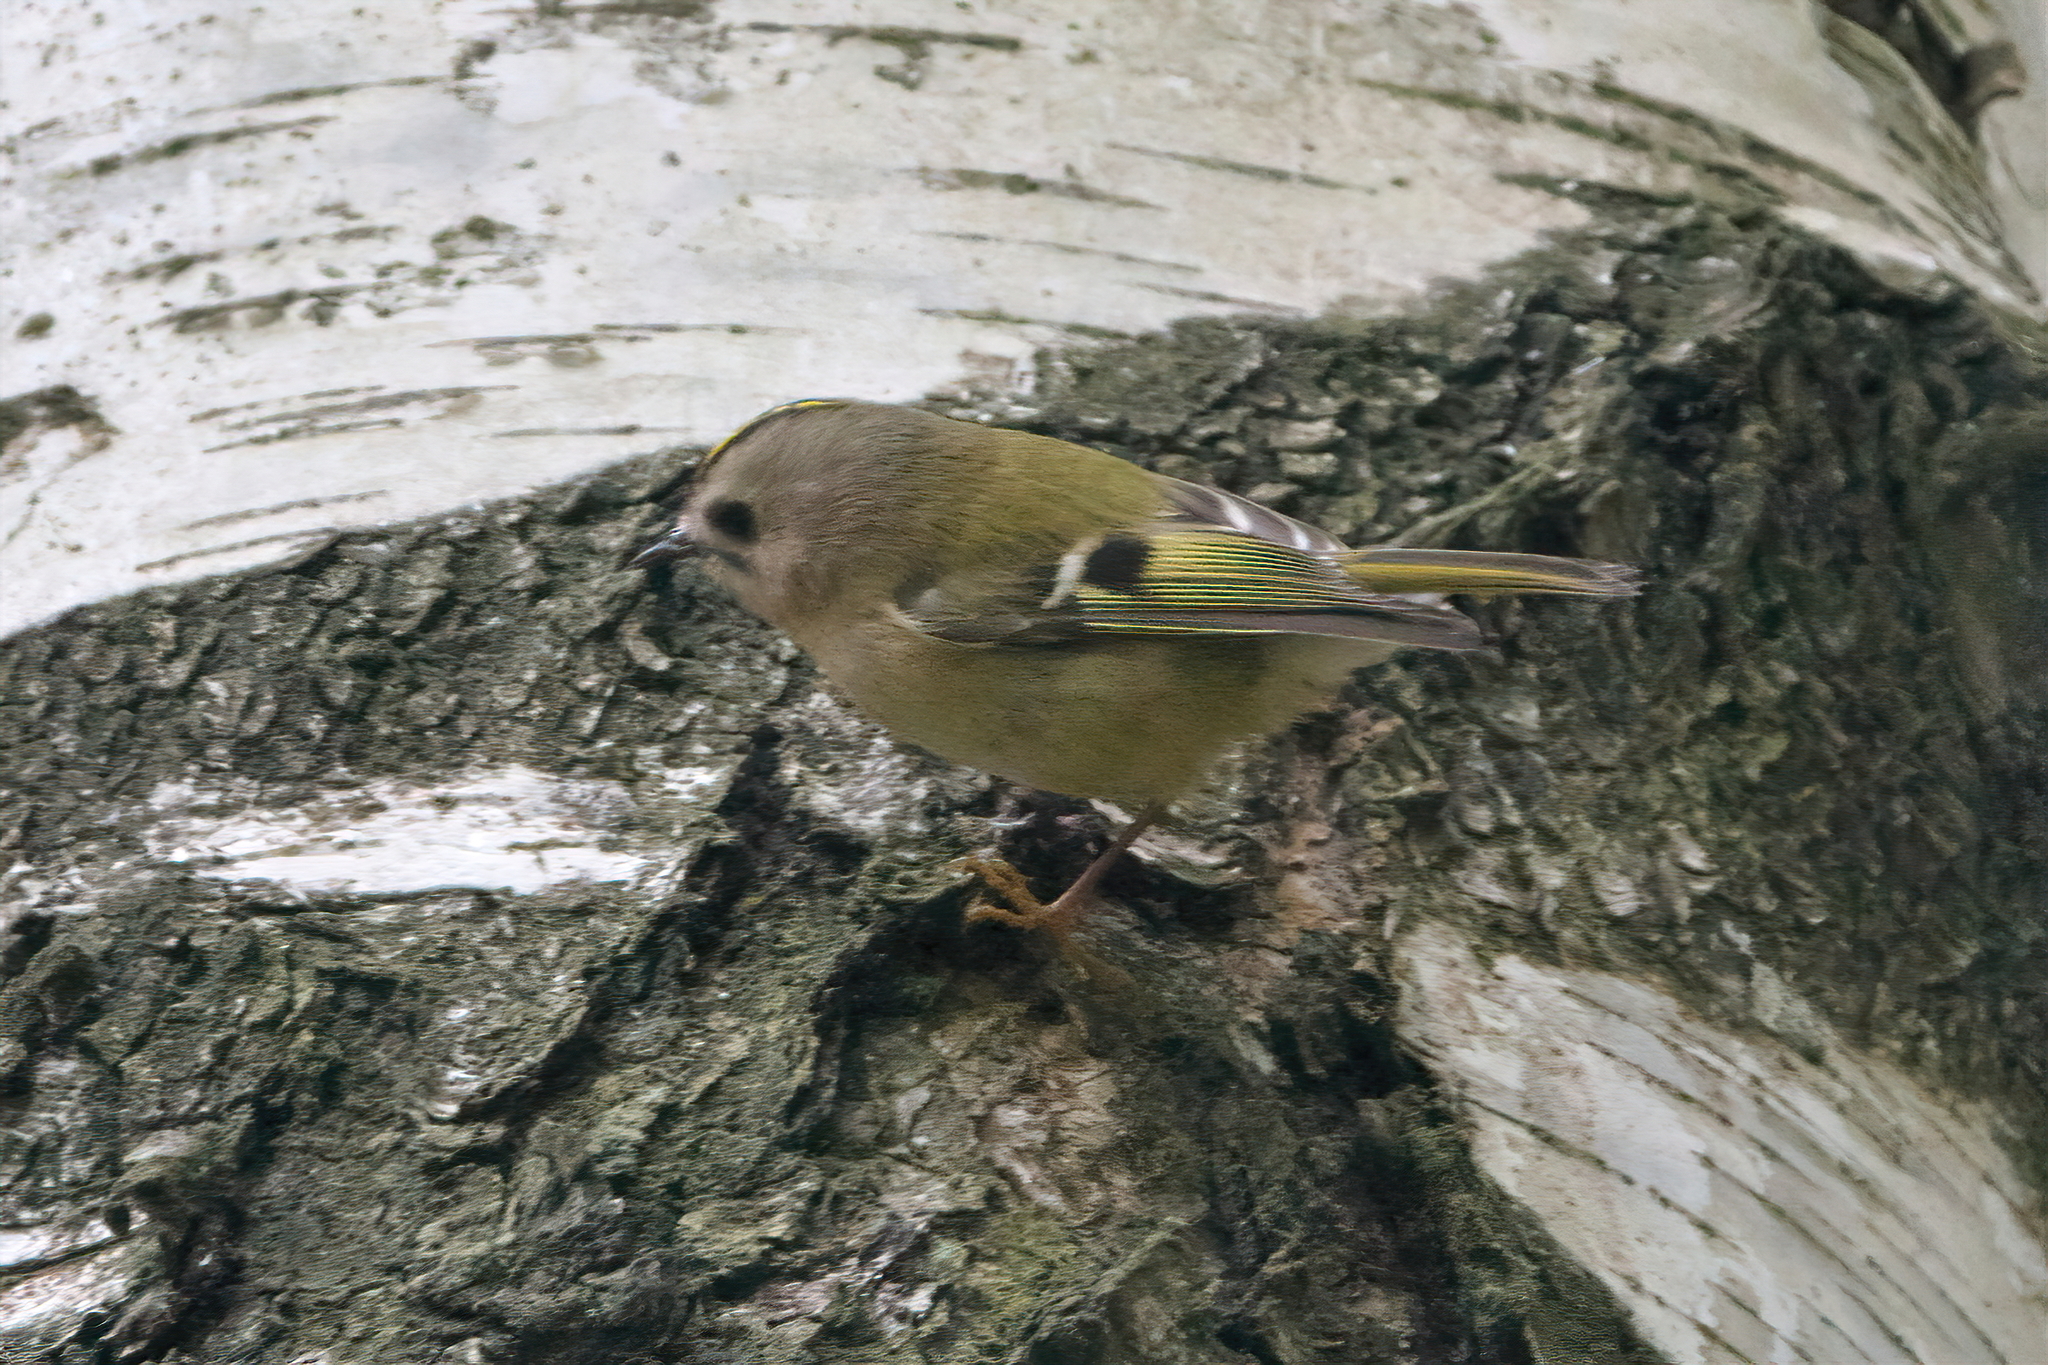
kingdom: Animalia
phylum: Chordata
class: Aves
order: Passeriformes
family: Regulidae
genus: Regulus
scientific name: Regulus regulus
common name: Goldcrest
